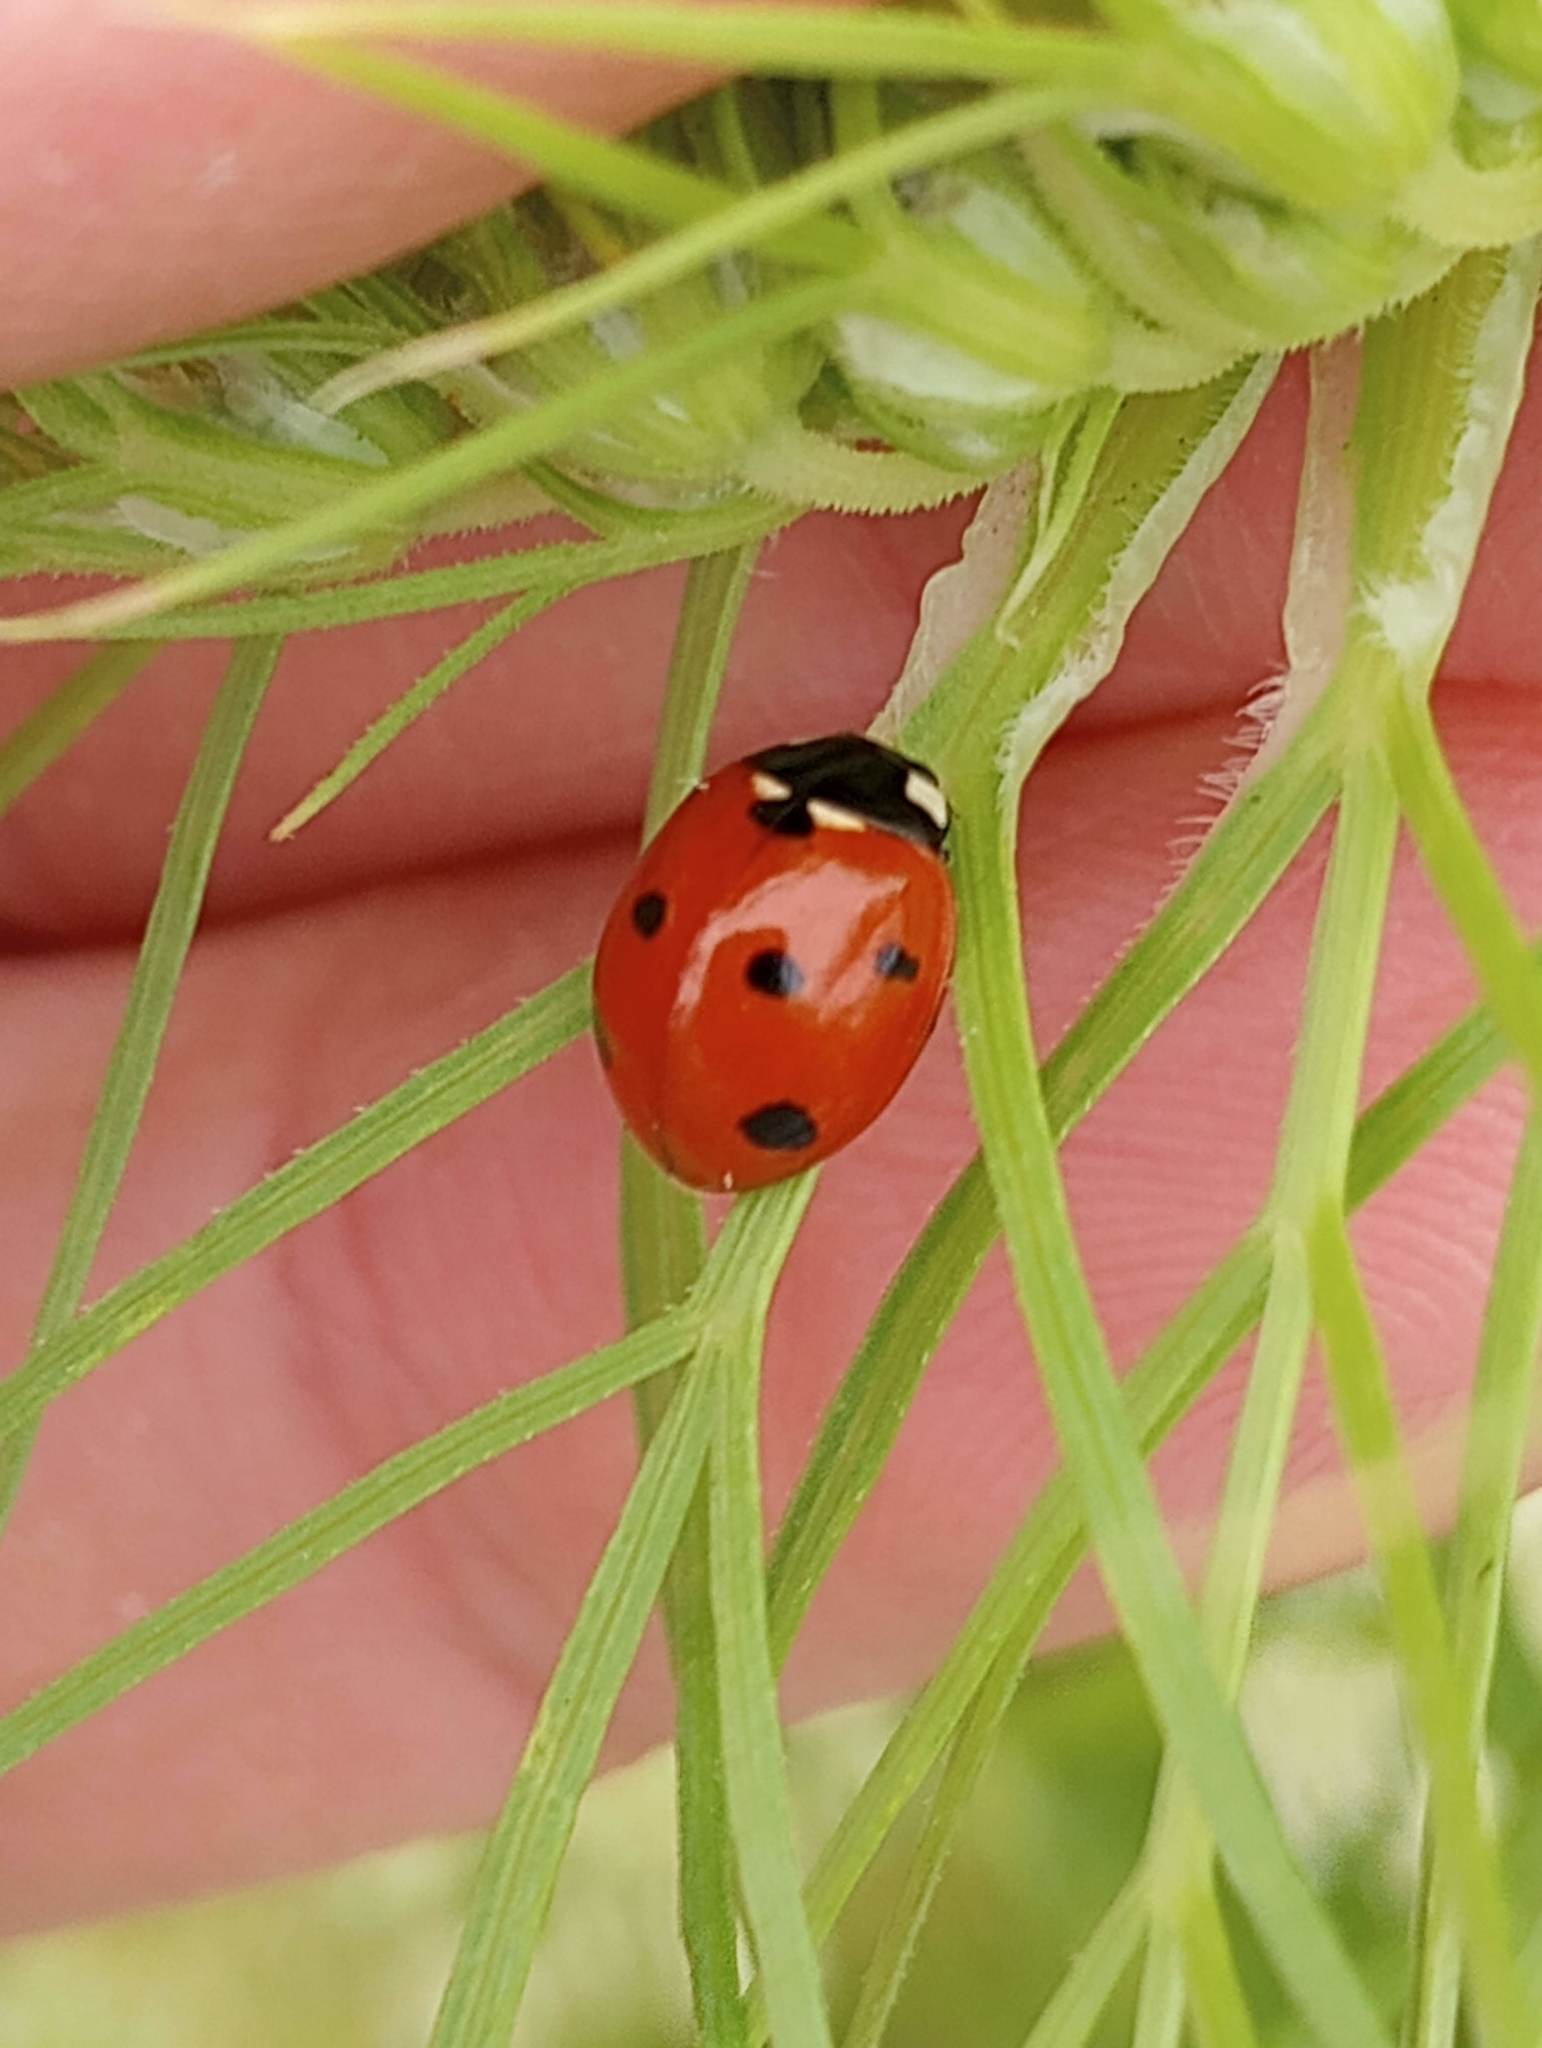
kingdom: Animalia
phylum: Arthropoda
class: Insecta
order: Coleoptera
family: Coccinellidae
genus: Coccinella
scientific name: Coccinella septempunctata
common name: Sevenspotted lady beetle
